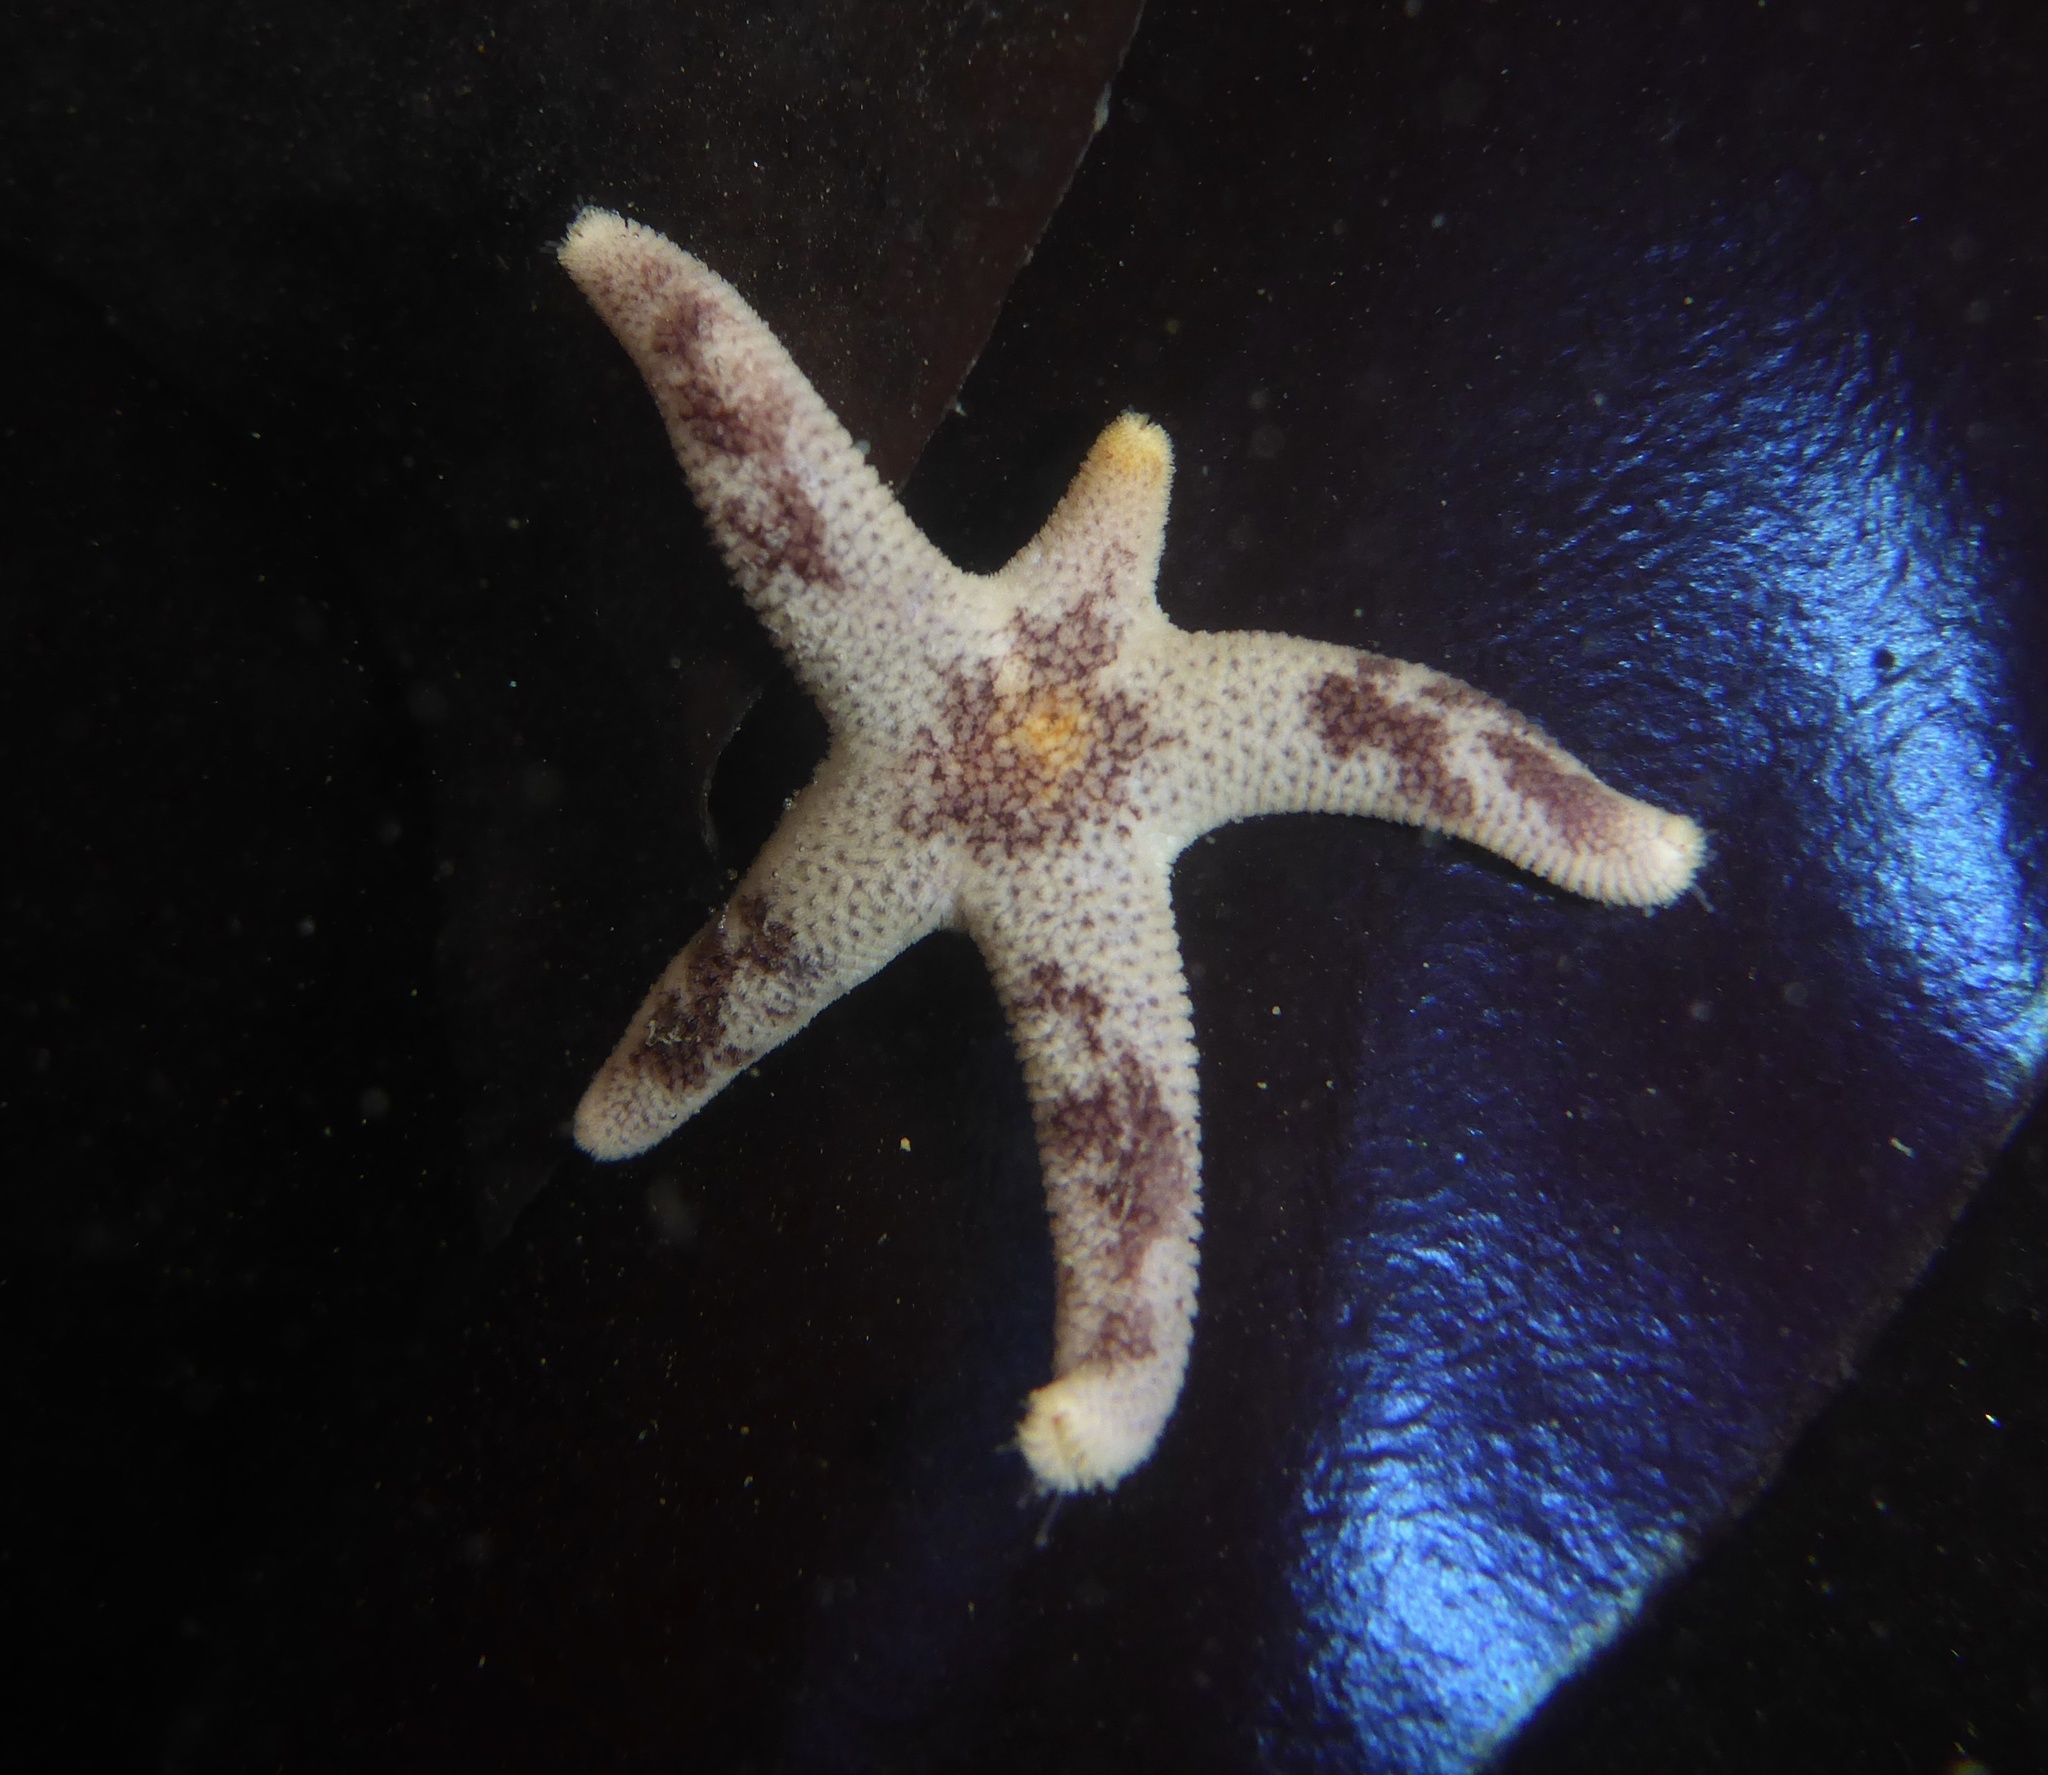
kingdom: Animalia
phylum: Echinodermata
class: Asteroidea
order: Spinulosida
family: Echinasteridae
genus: Henricia
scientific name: Henricia pumila
